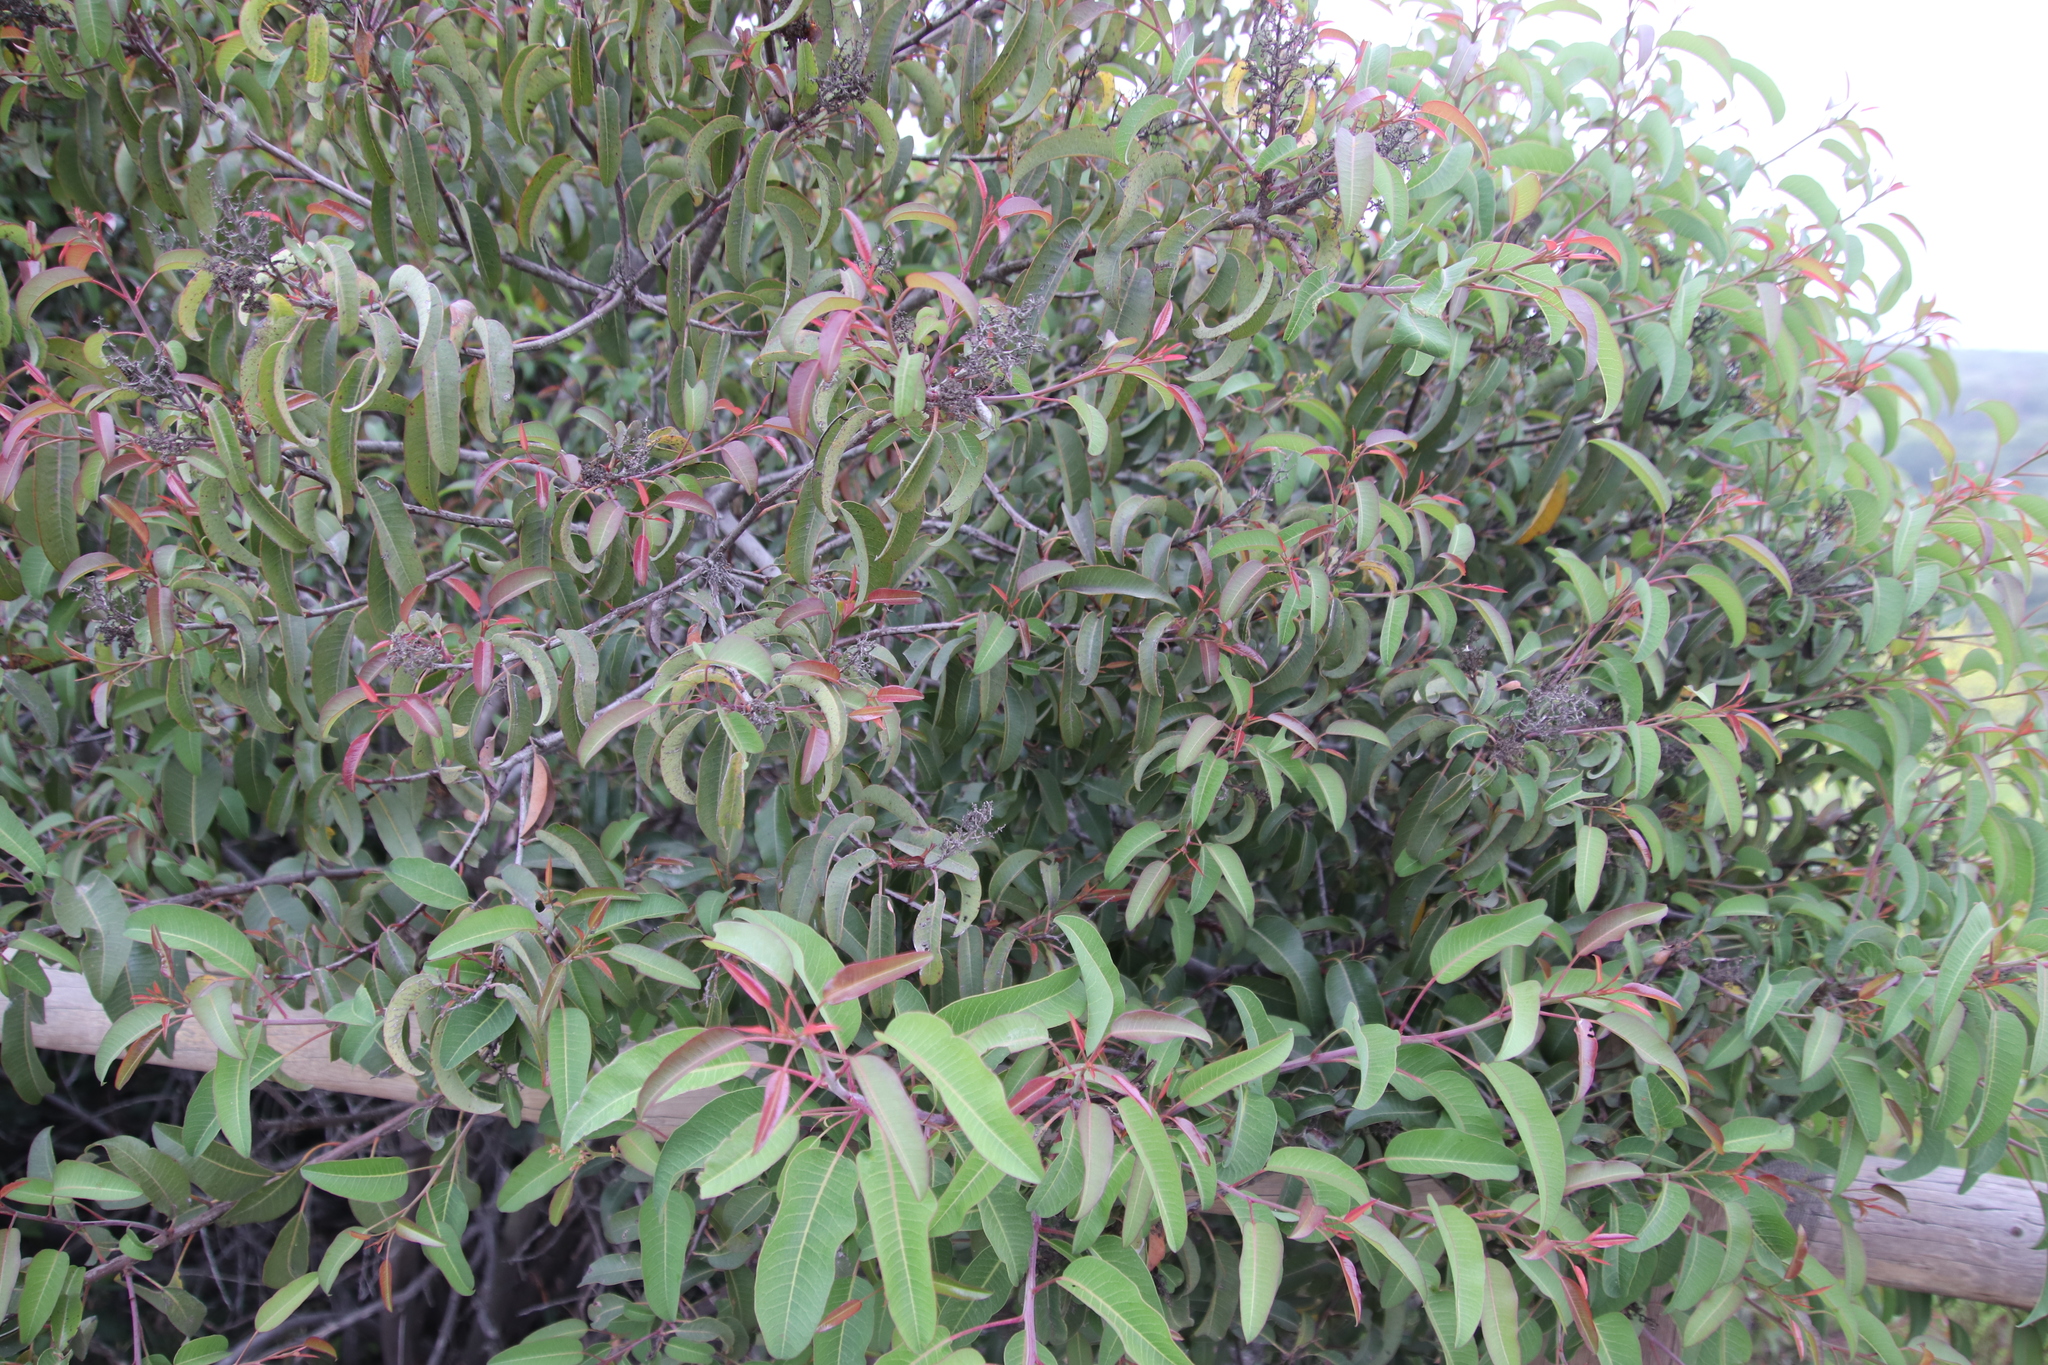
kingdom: Plantae
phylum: Tracheophyta
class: Magnoliopsida
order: Sapindales
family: Anacardiaceae
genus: Malosma
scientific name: Malosma laurina
